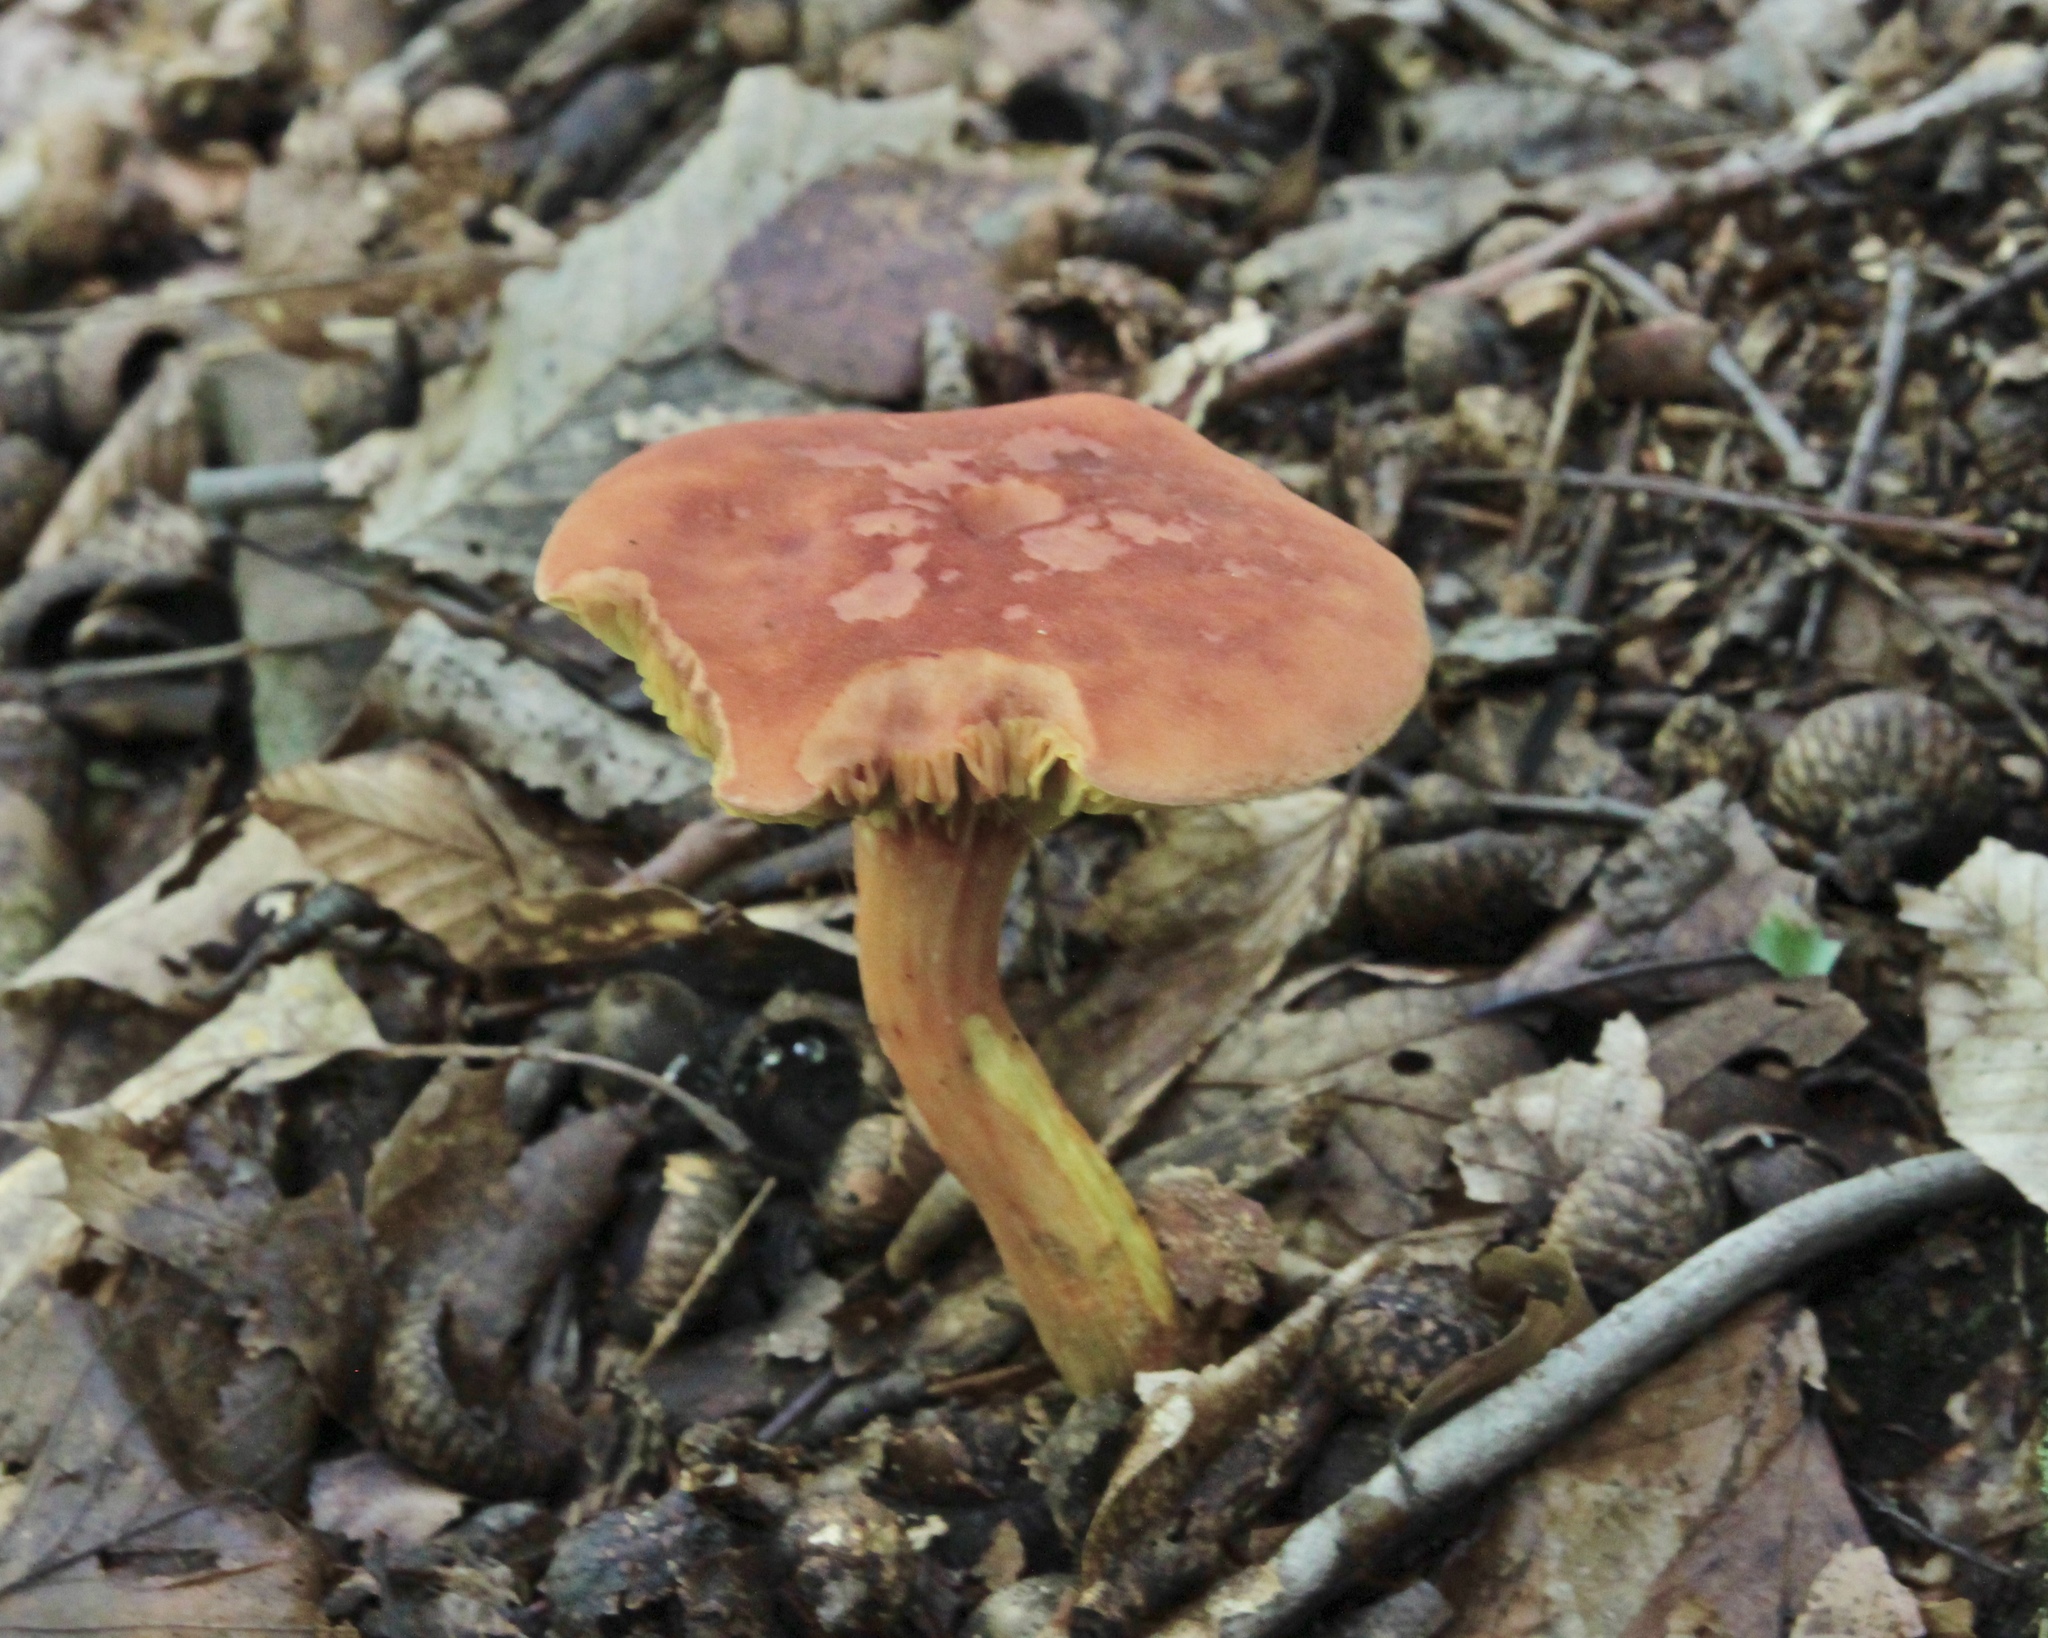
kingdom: Fungi
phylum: Basidiomycota
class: Agaricomycetes
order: Boletales
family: Boletaceae
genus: Phylloporus
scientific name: Phylloporus rhodoxanthus
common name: Golden gilled bolete
